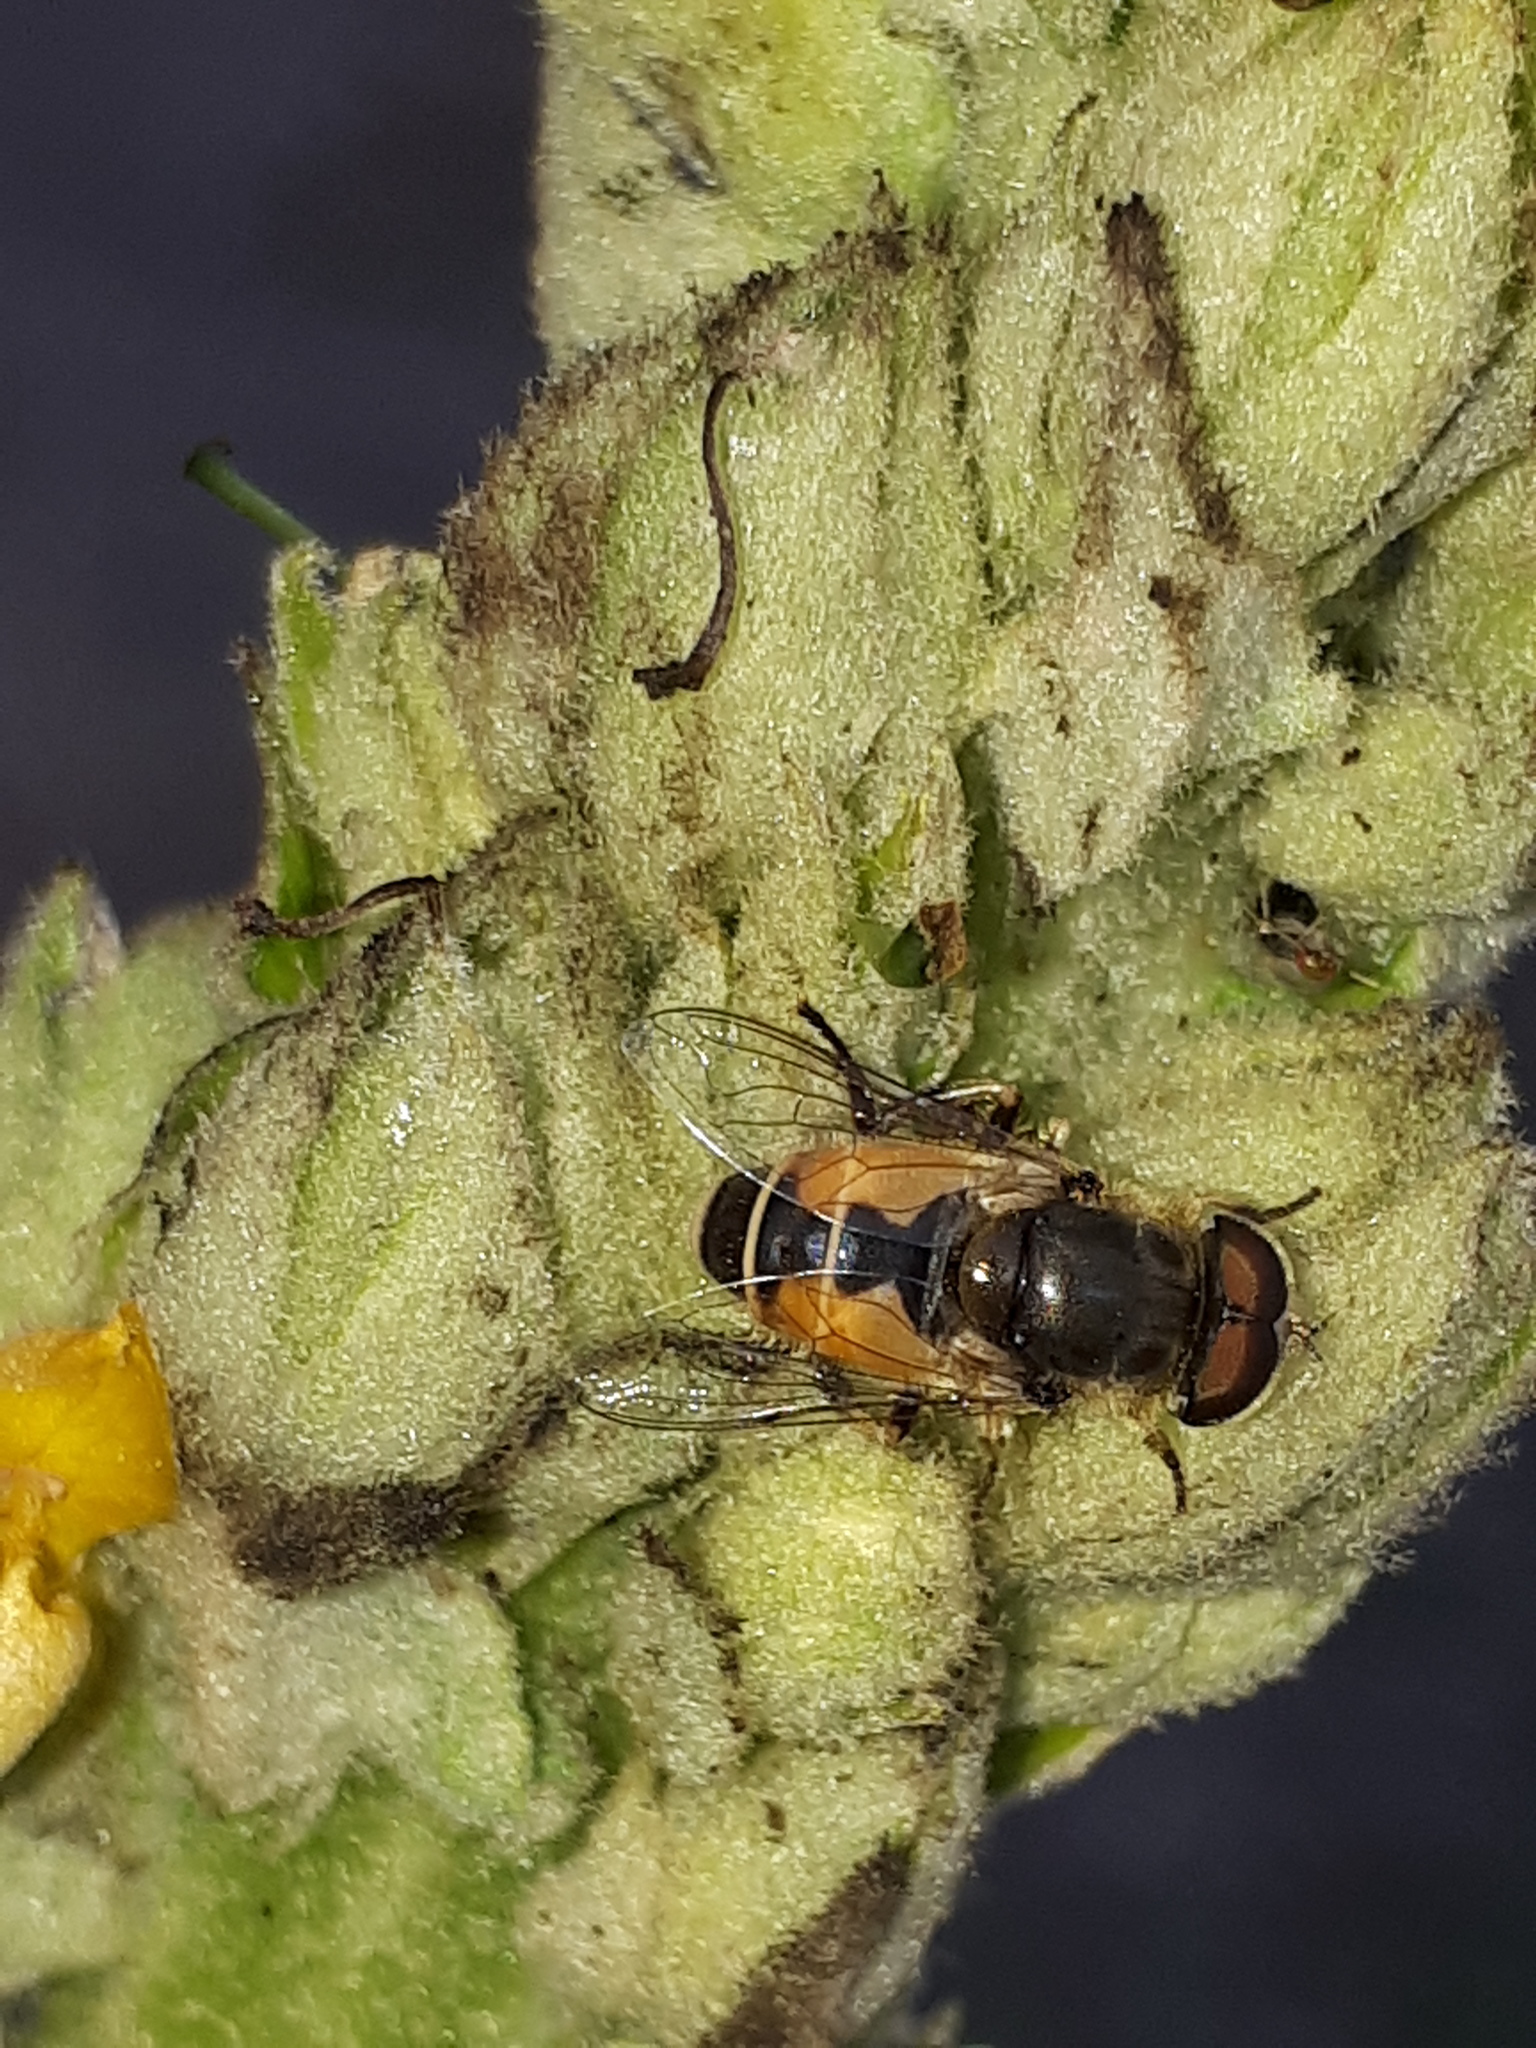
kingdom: Animalia
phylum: Arthropoda
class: Insecta
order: Diptera
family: Syrphidae
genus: Eristalis
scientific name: Eristalis arbustorum
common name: Hover fly
